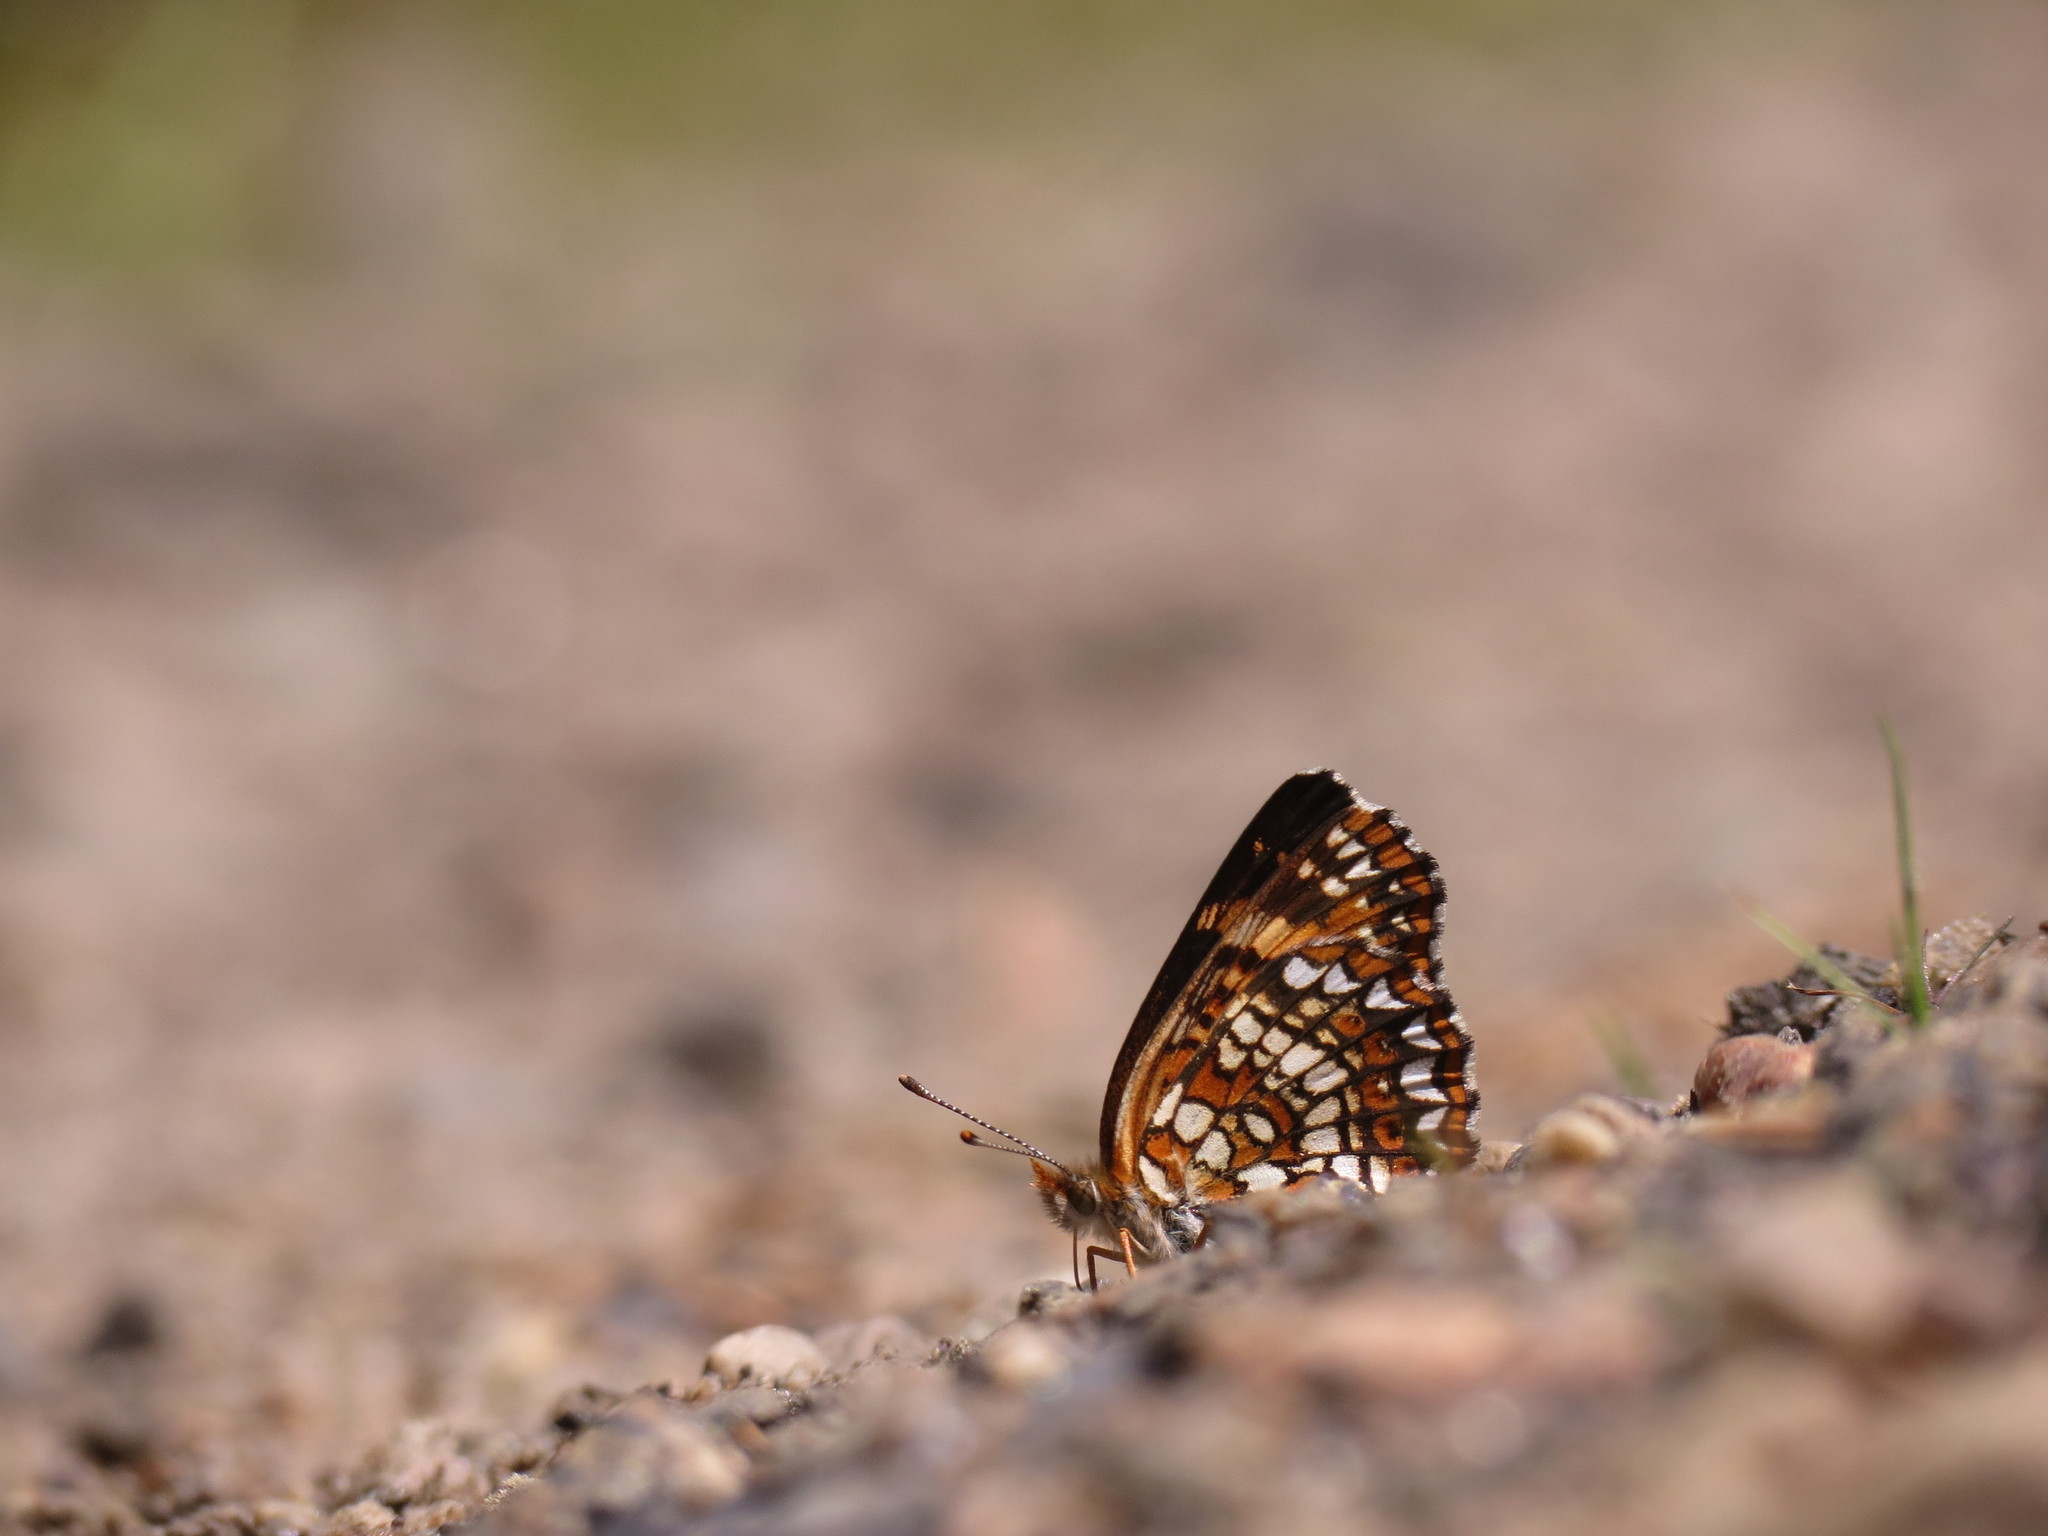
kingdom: Animalia
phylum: Arthropoda
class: Insecta
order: Lepidoptera
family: Nymphalidae
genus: Chlosyne
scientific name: Chlosyne harrisii
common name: Harris's checkerspot
